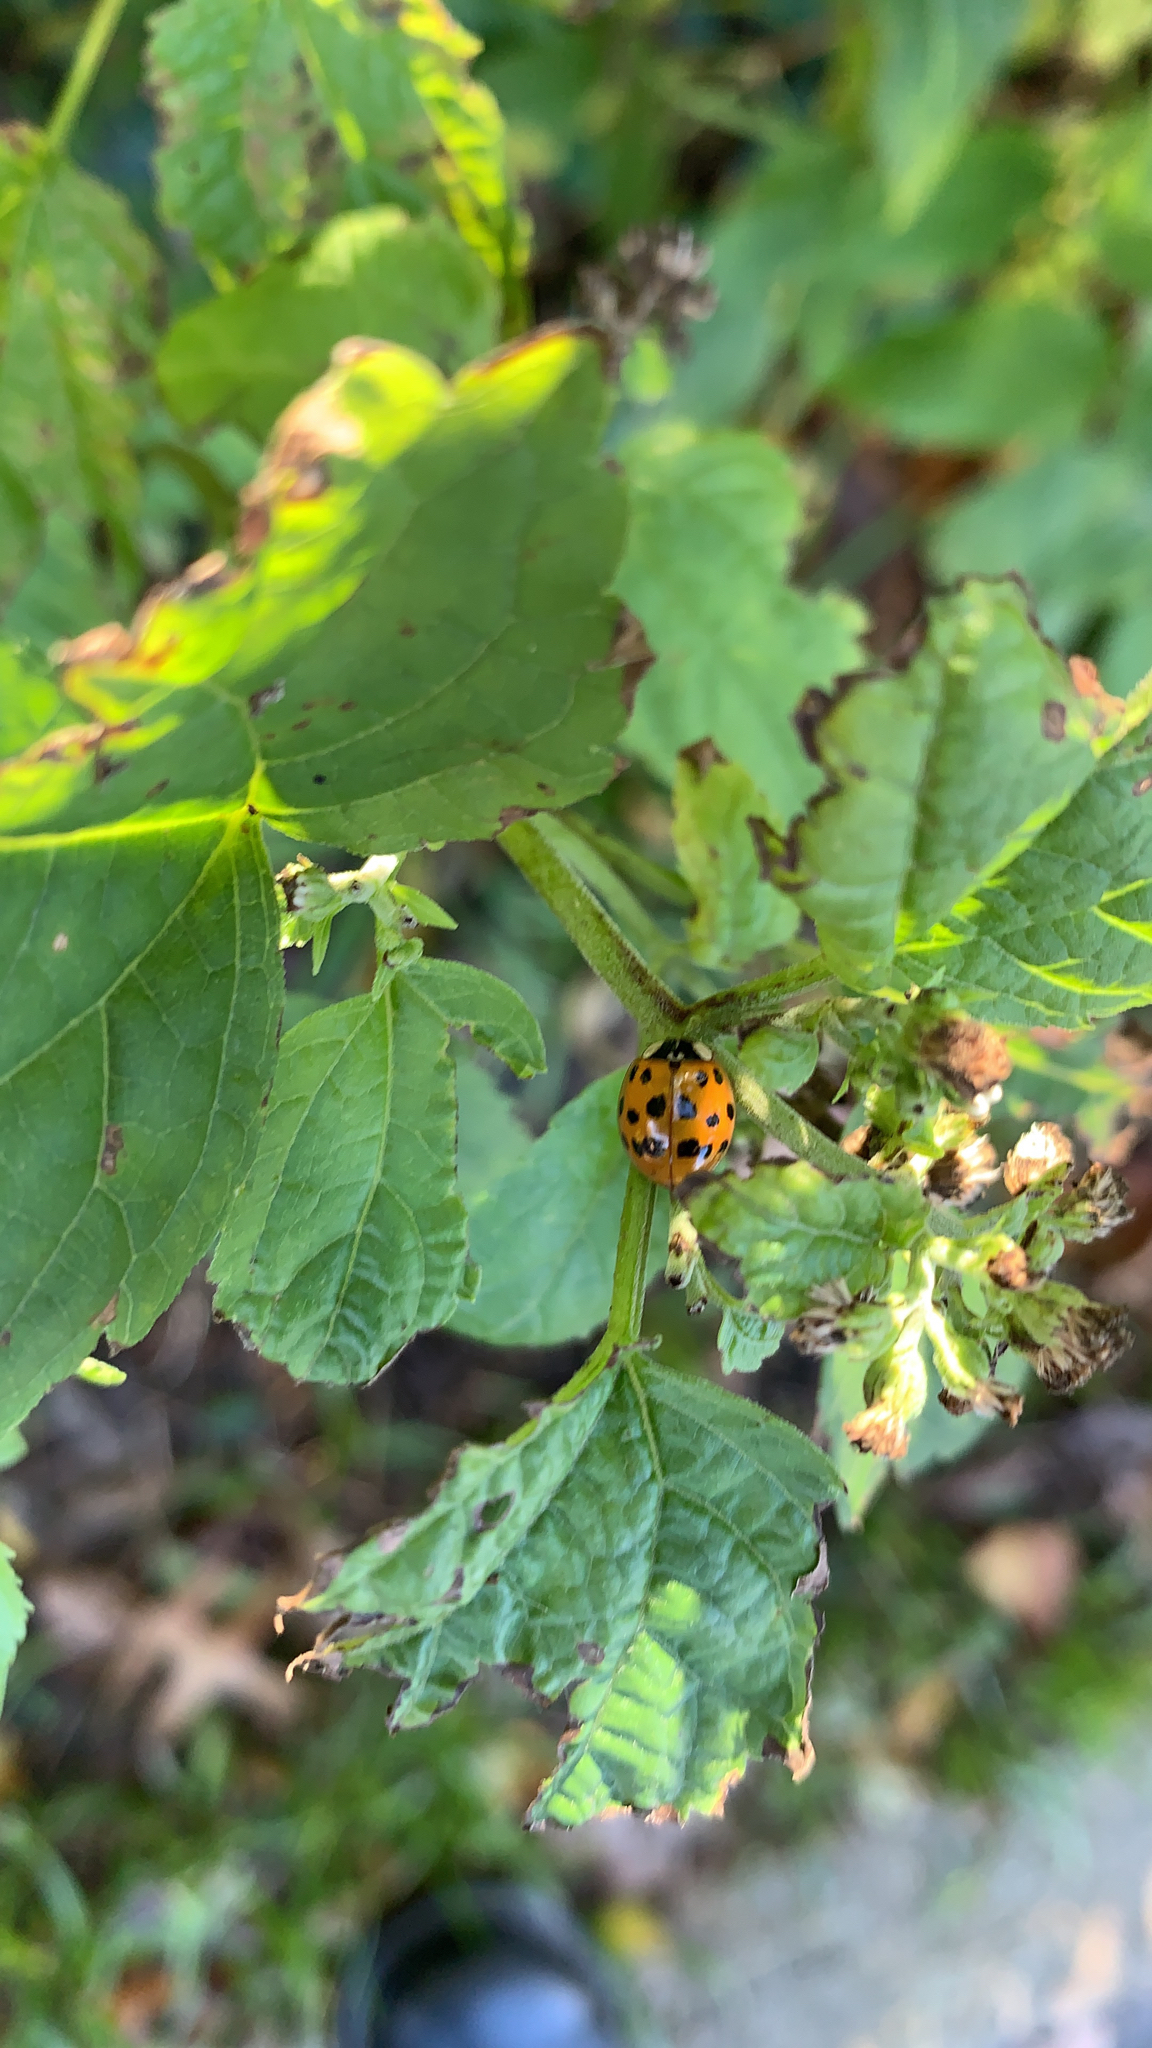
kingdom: Animalia
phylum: Arthropoda
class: Insecta
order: Coleoptera
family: Coccinellidae
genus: Harmonia
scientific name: Harmonia axyridis
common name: Harlequin ladybird
